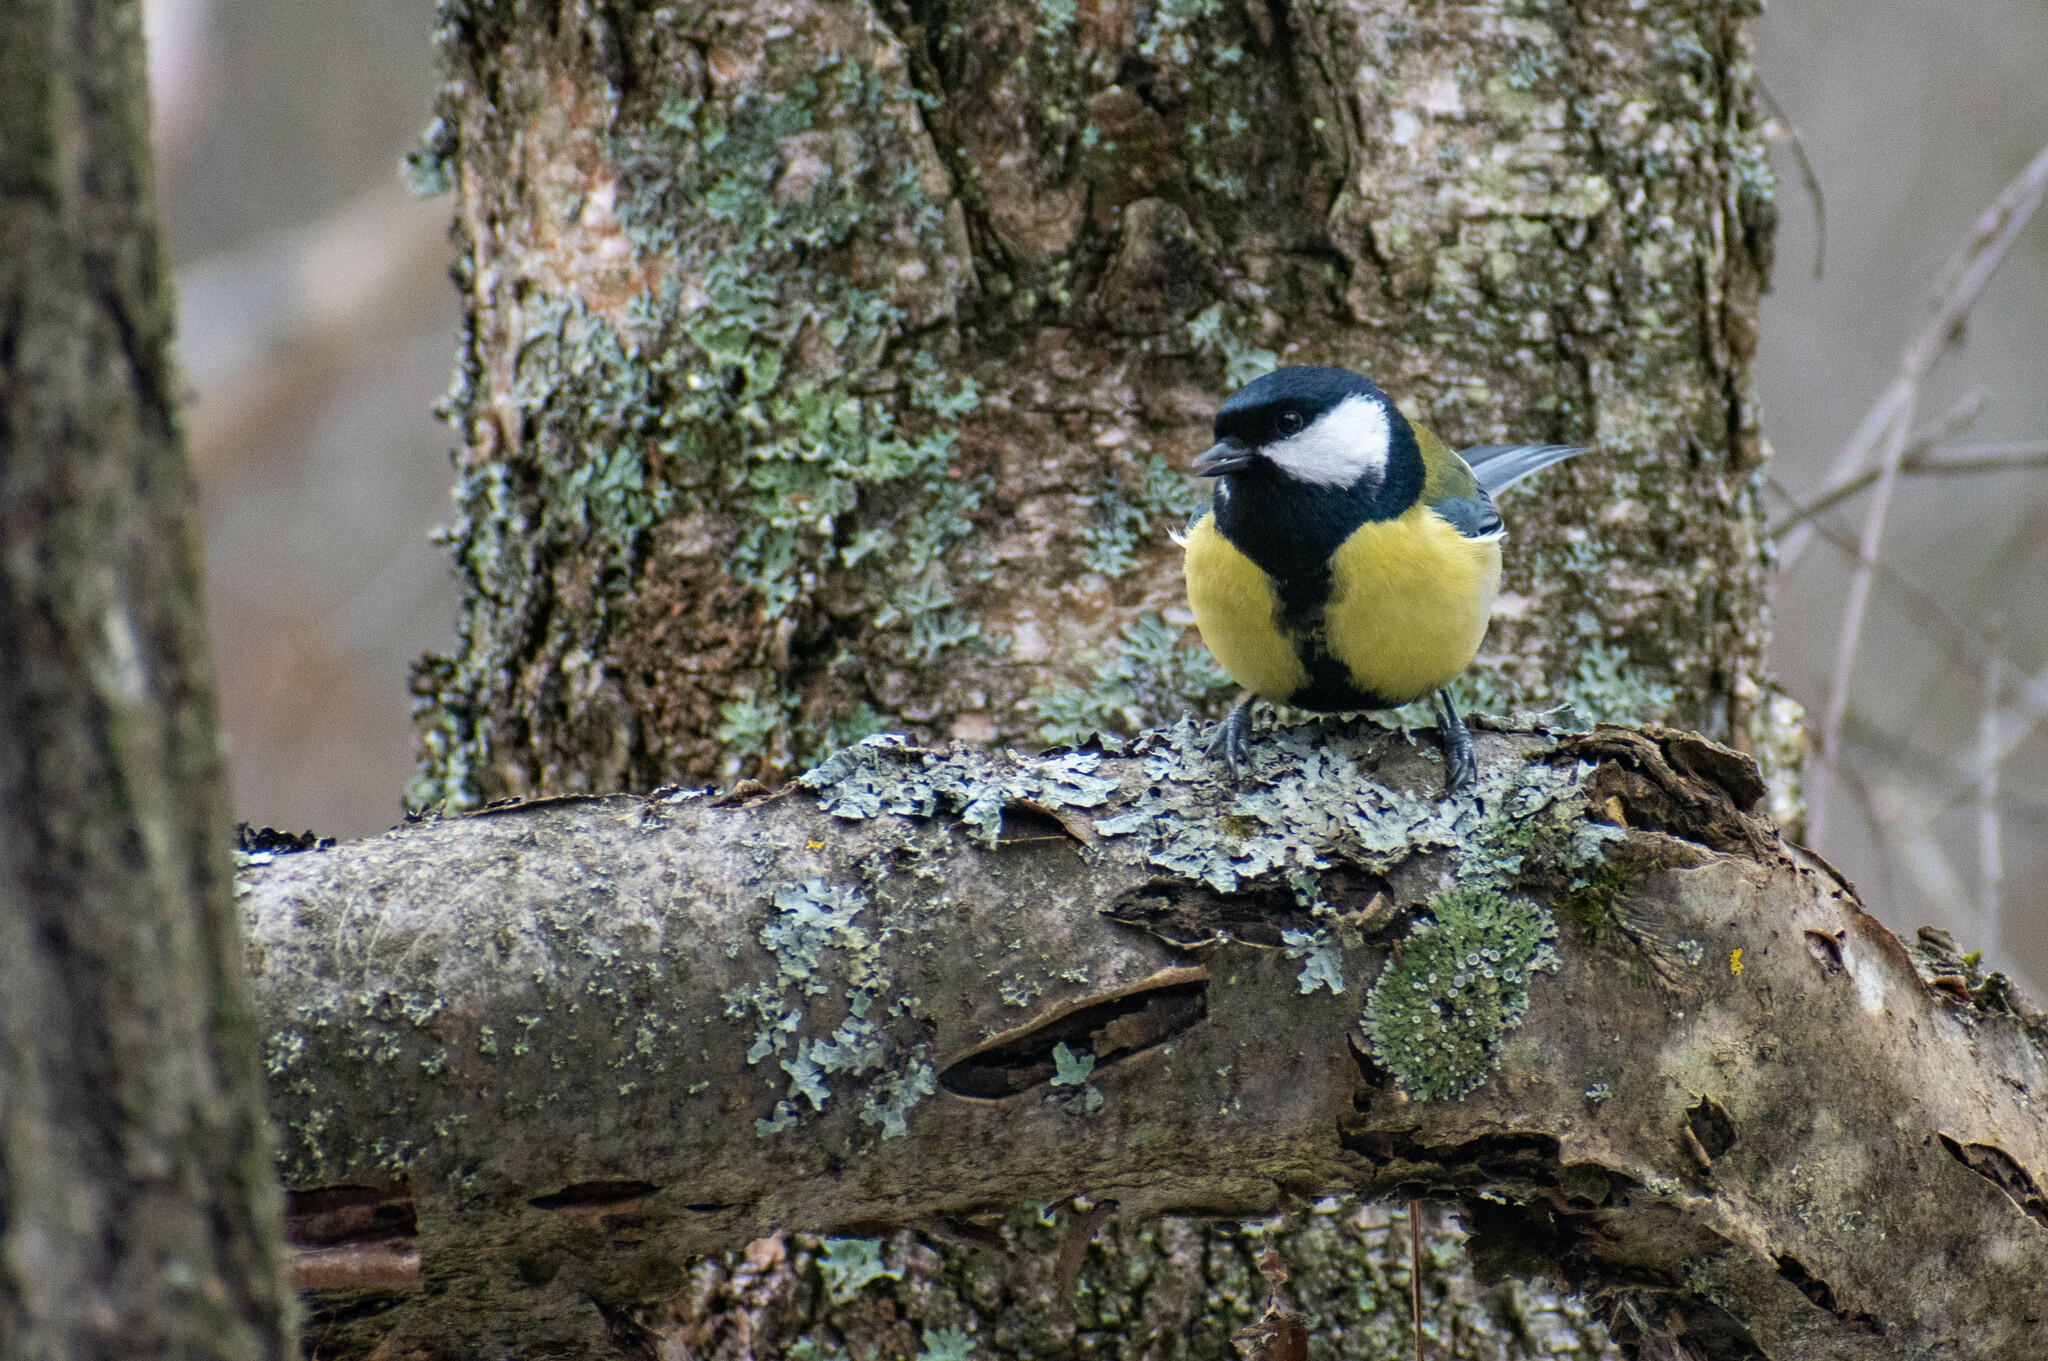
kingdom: Animalia
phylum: Chordata
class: Aves
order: Passeriformes
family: Paridae
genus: Parus
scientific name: Parus major
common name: Great tit
